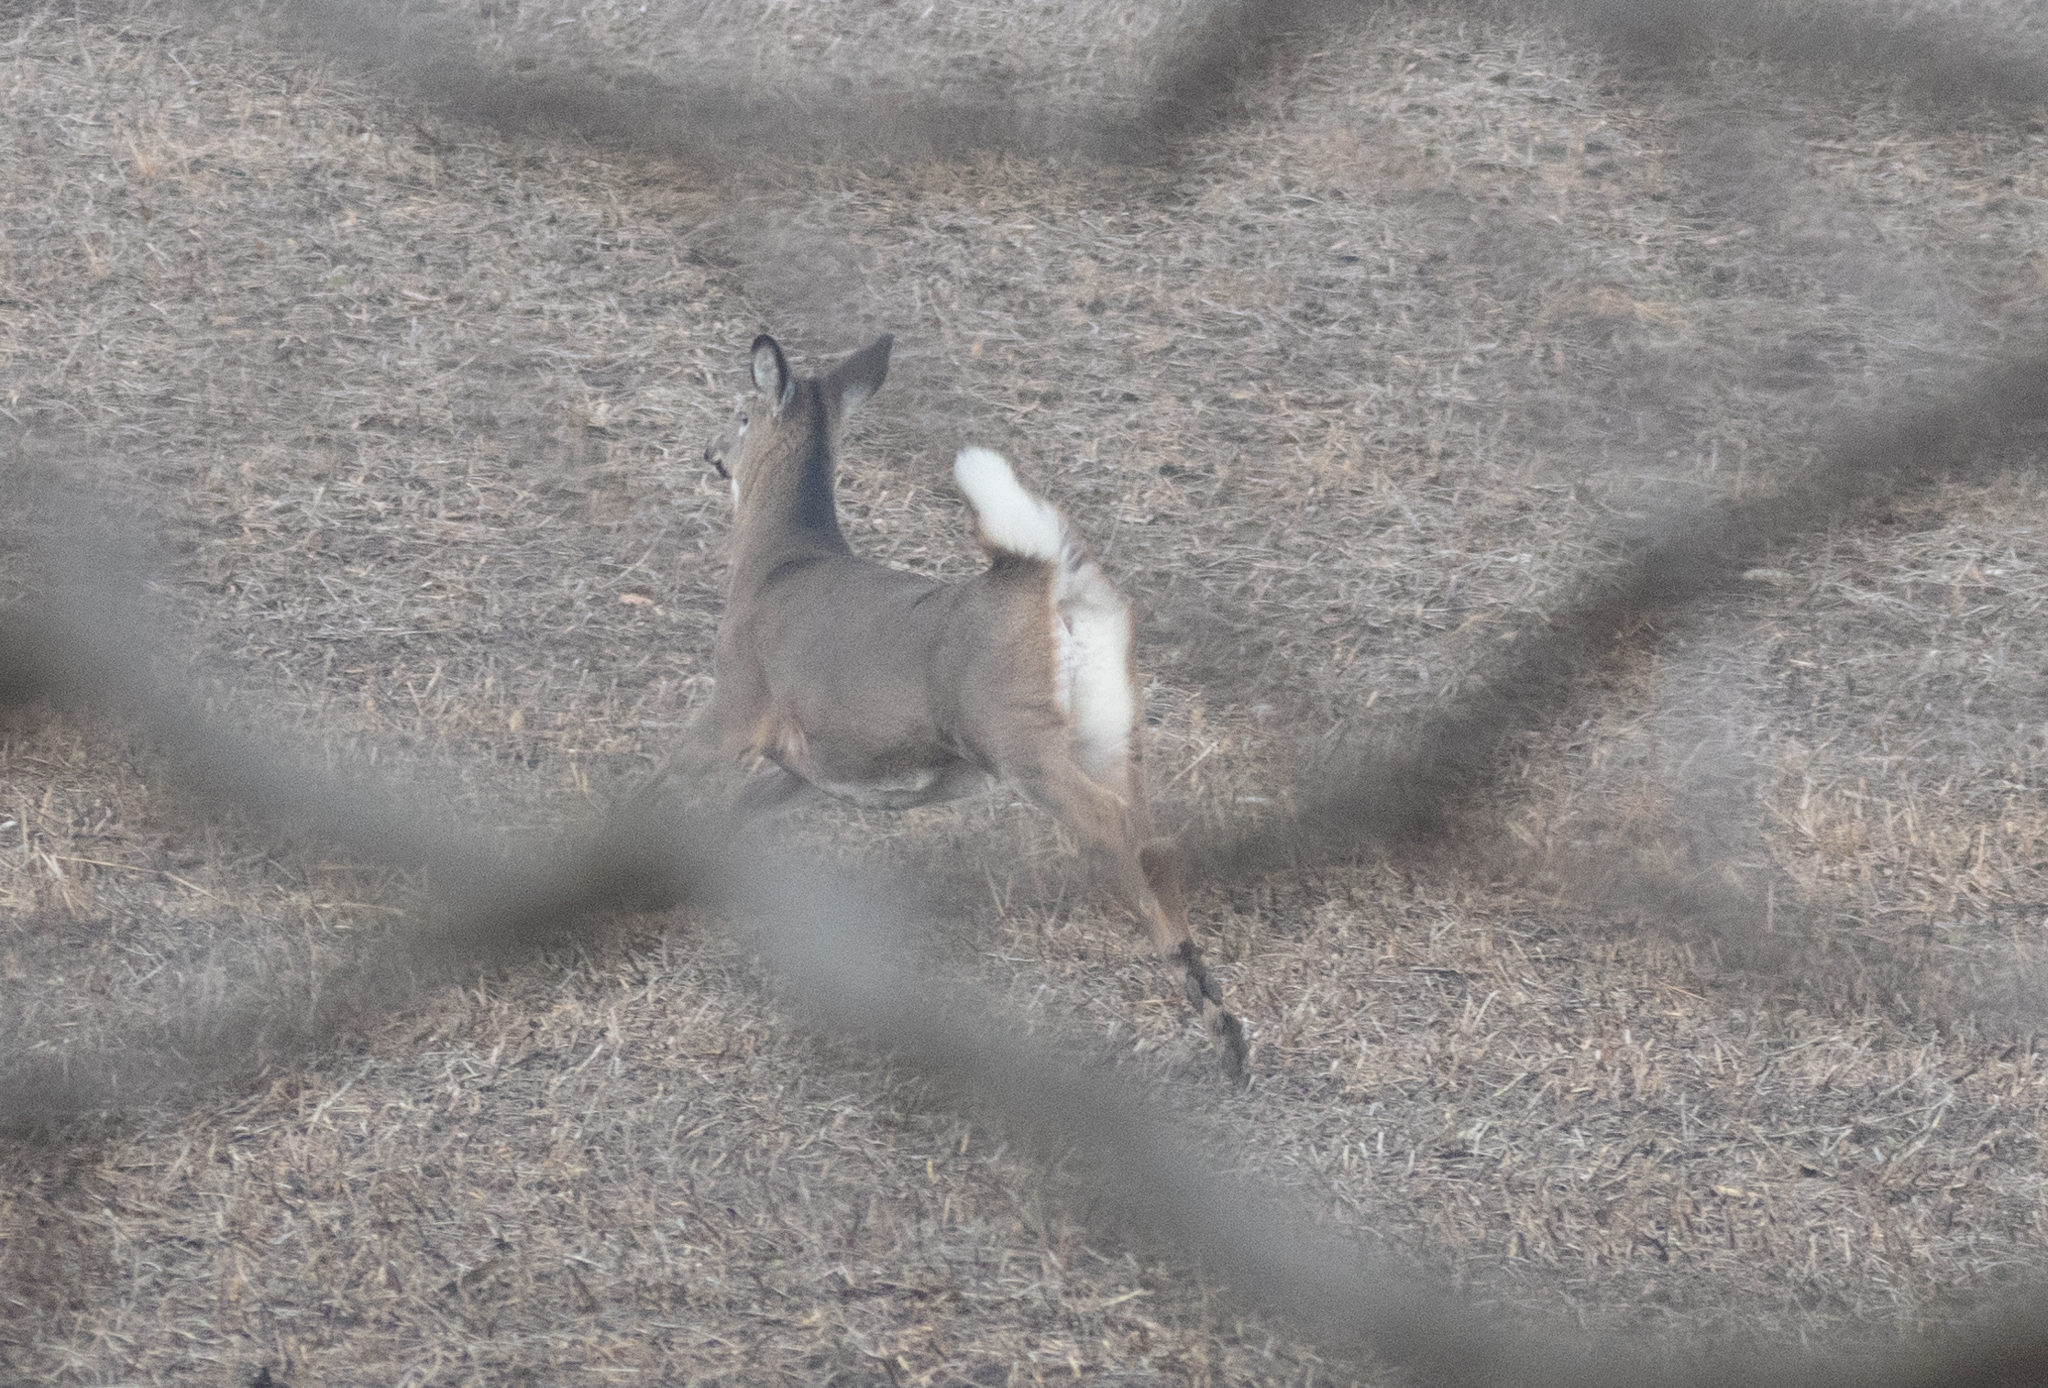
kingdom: Animalia
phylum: Chordata
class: Mammalia
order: Artiodactyla
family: Cervidae
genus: Odocoileus
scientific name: Odocoileus virginianus
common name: White-tailed deer
